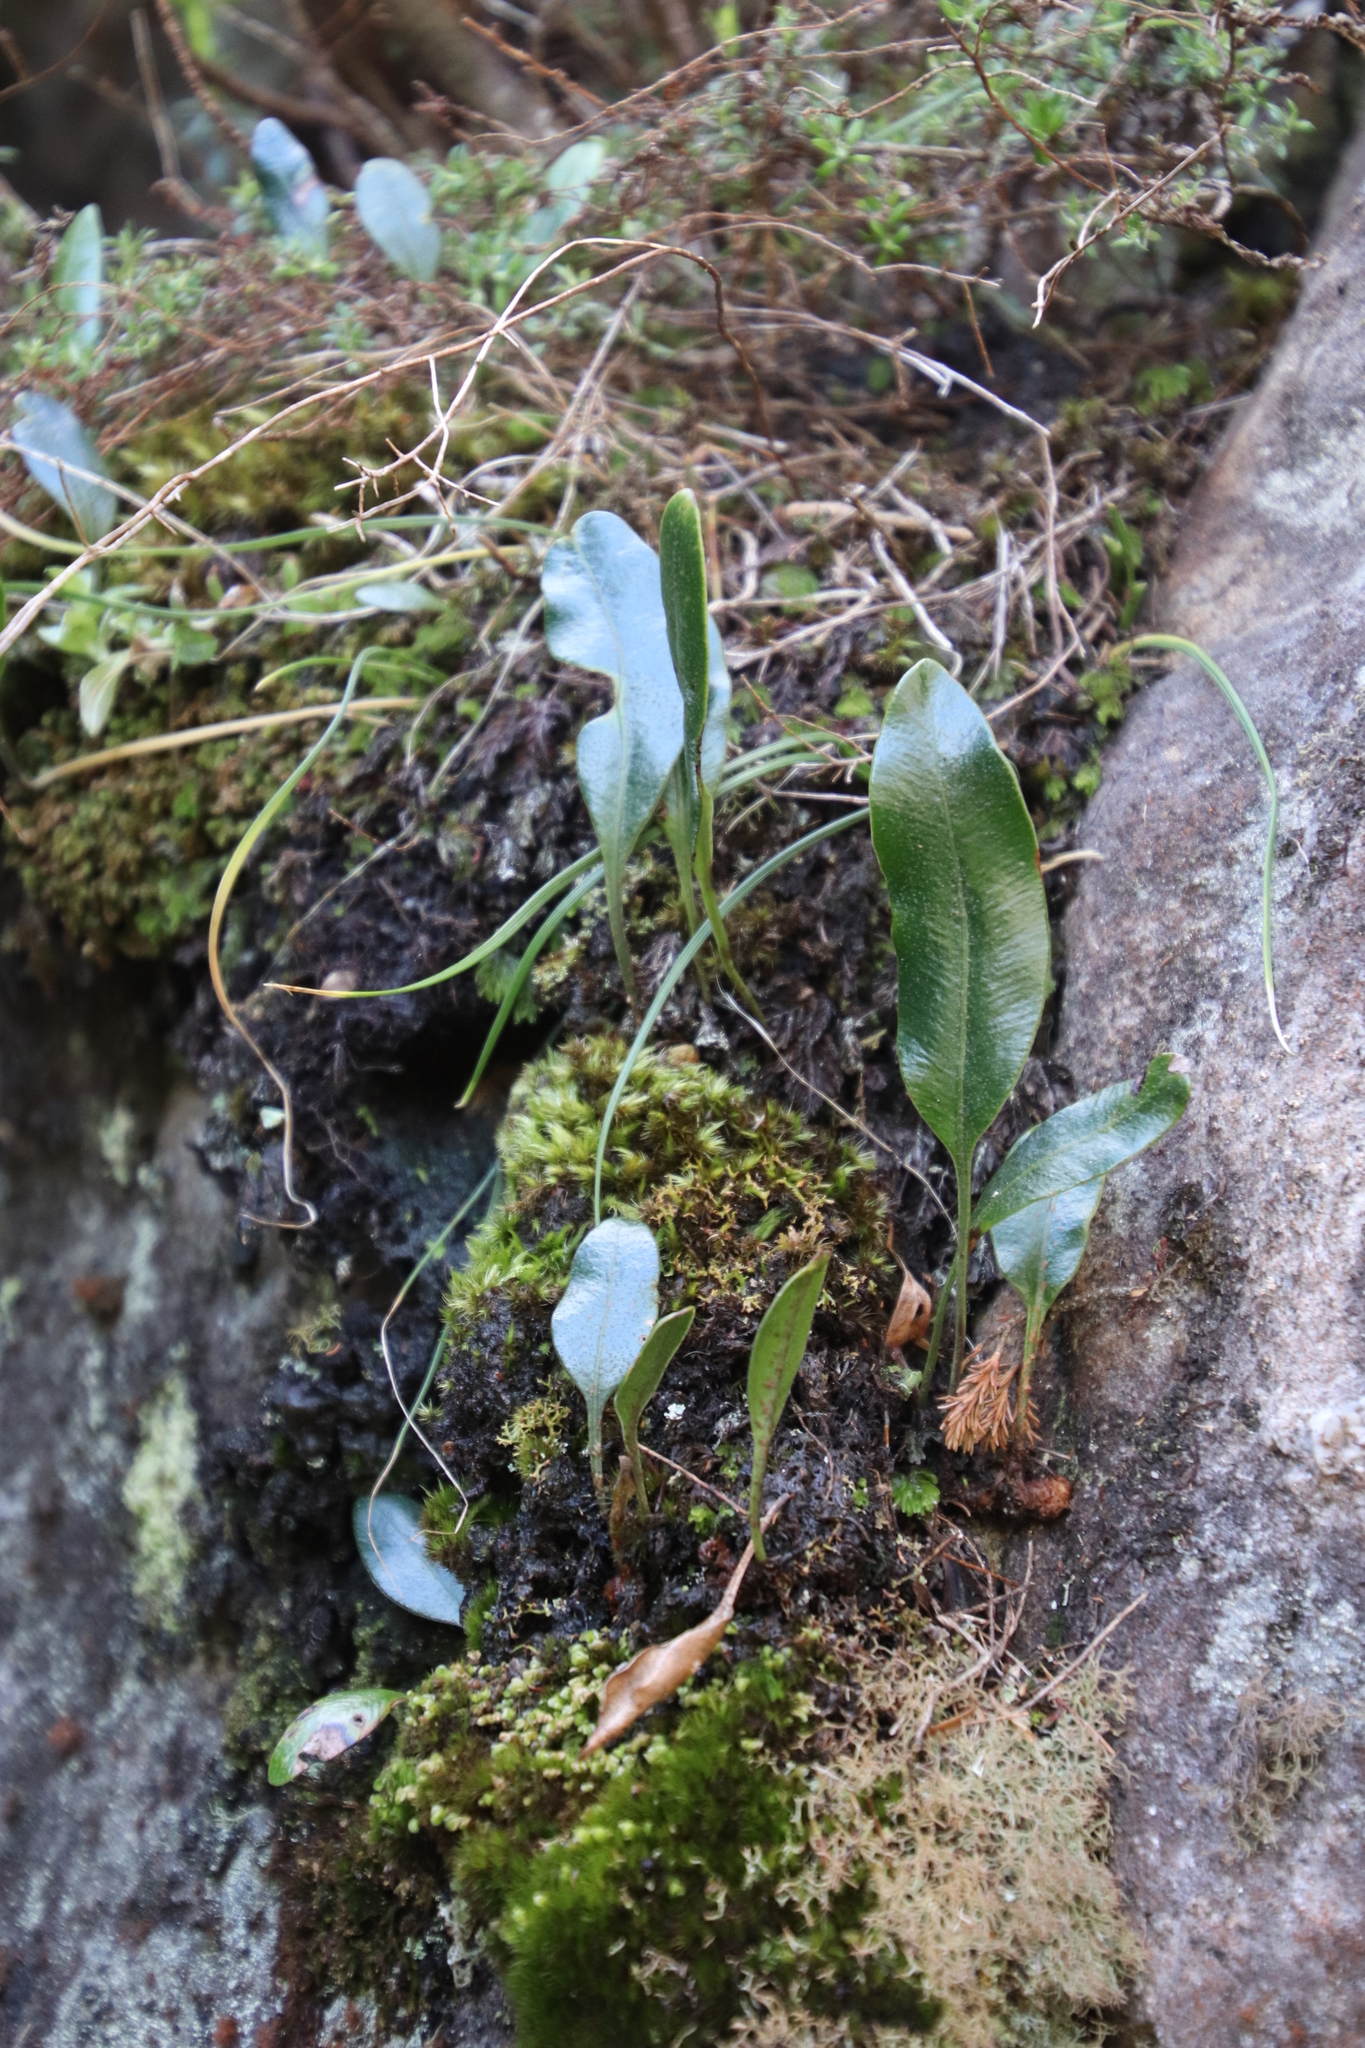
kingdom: Plantae
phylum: Tracheophyta
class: Polypodiopsida
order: Polypodiales
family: Dryopteridaceae
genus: Elaphoglossum
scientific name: Elaphoglossum conforme
